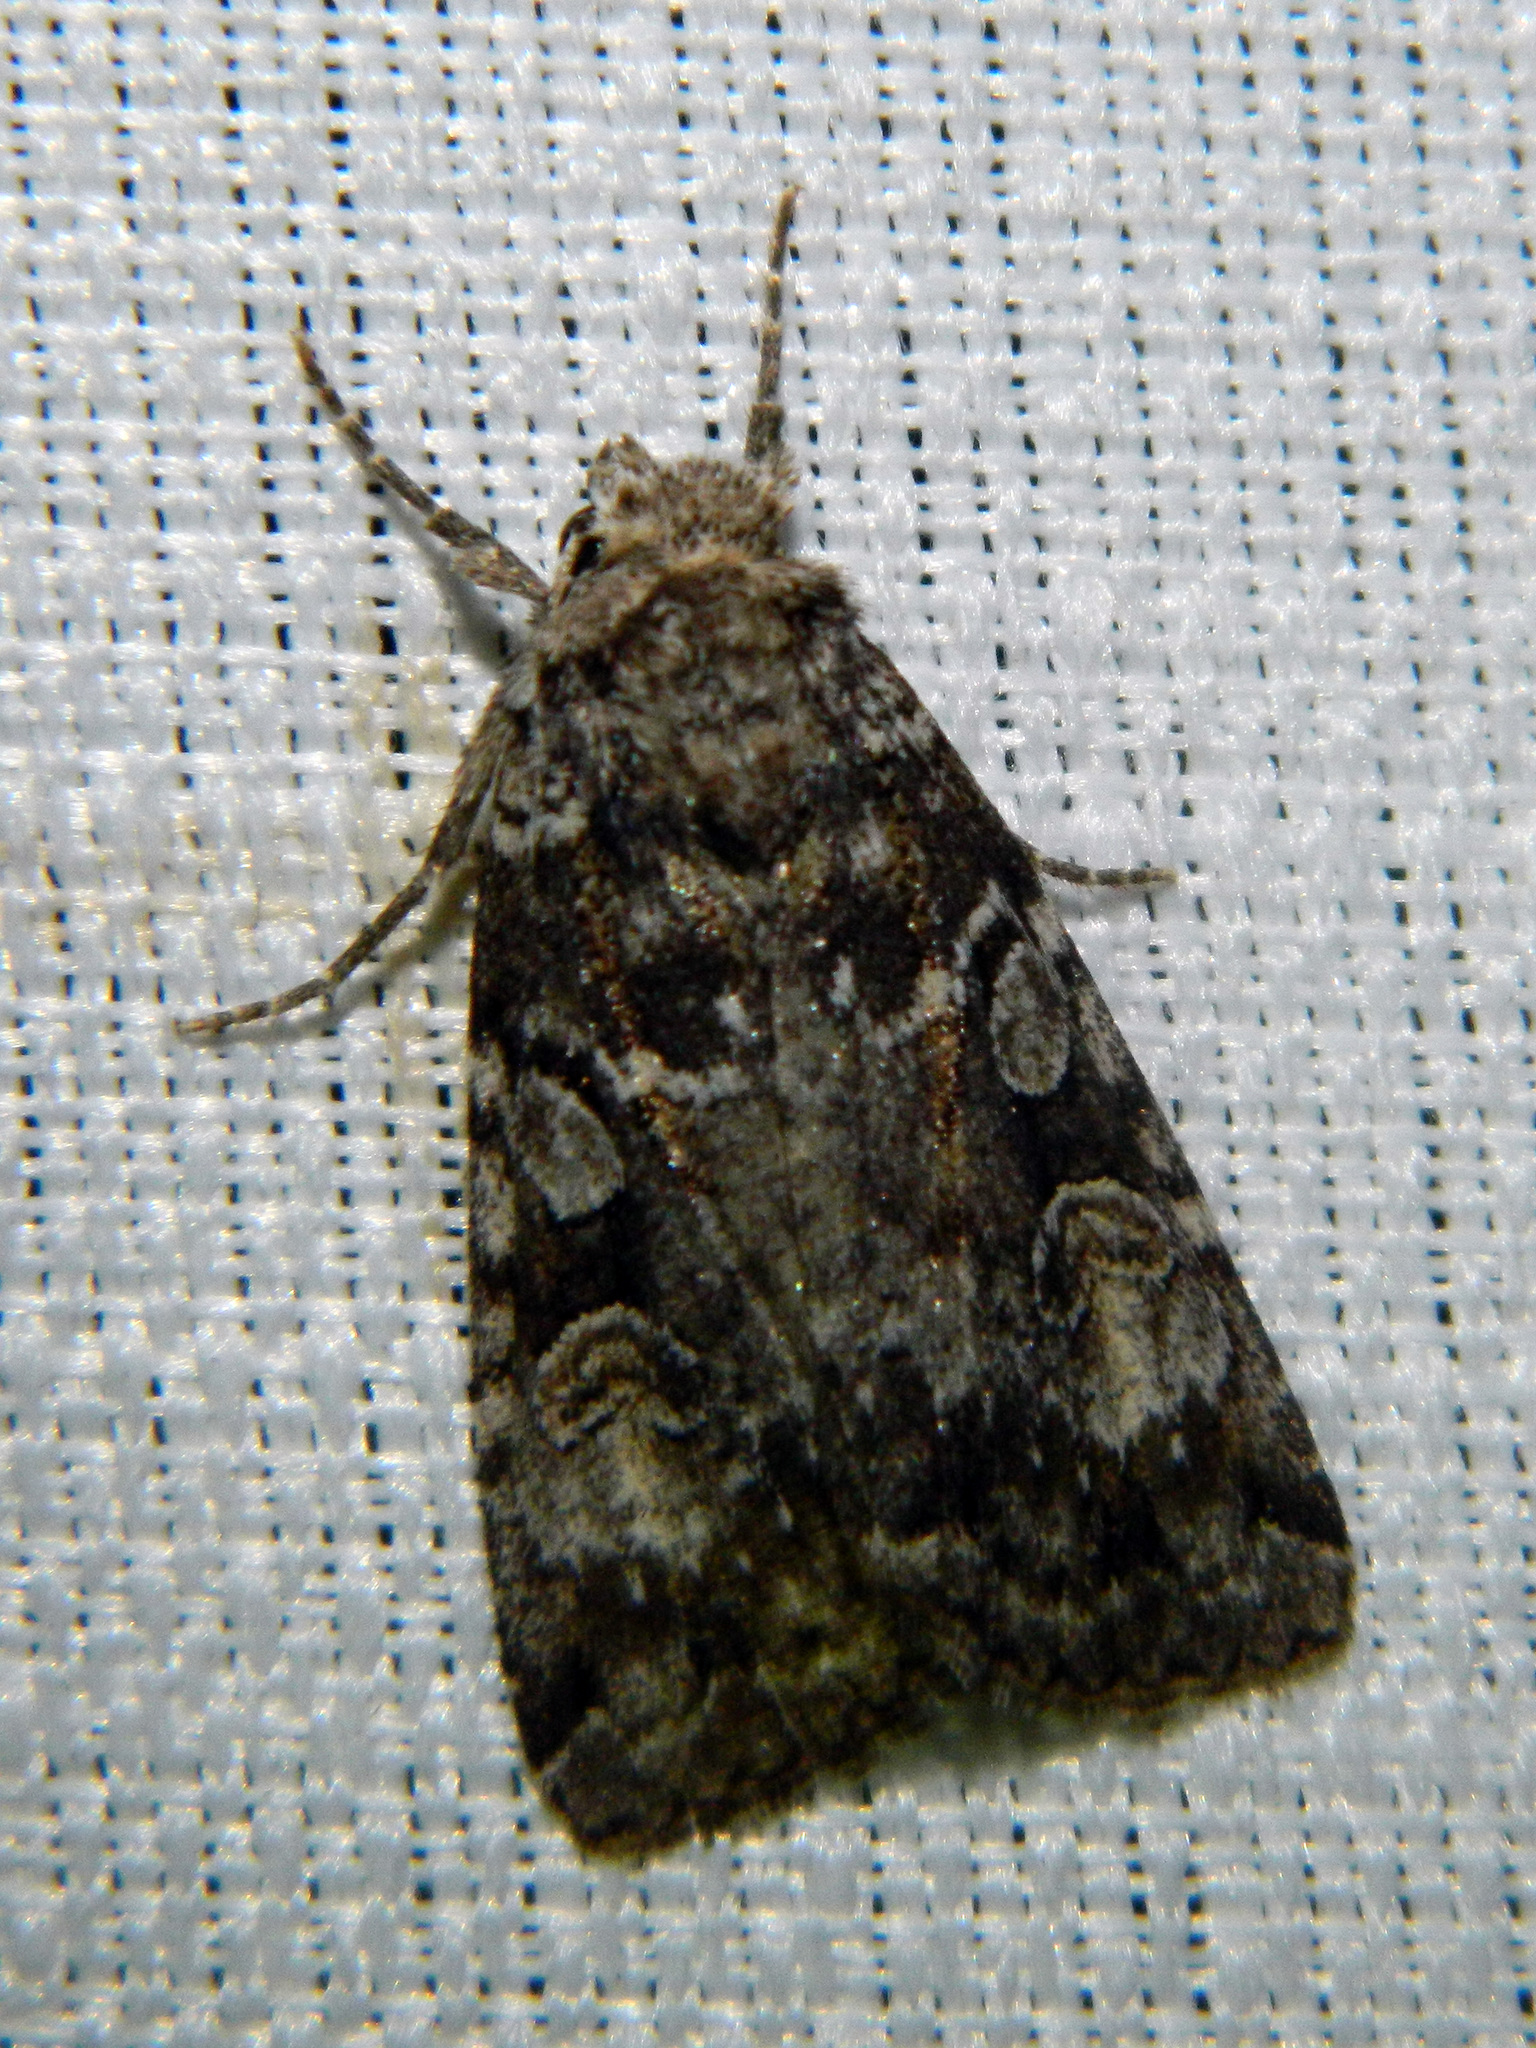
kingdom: Animalia
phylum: Arthropoda
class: Insecta
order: Lepidoptera
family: Noctuidae
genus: Anaplectoides
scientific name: Anaplectoides pressus
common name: Dappled dart
